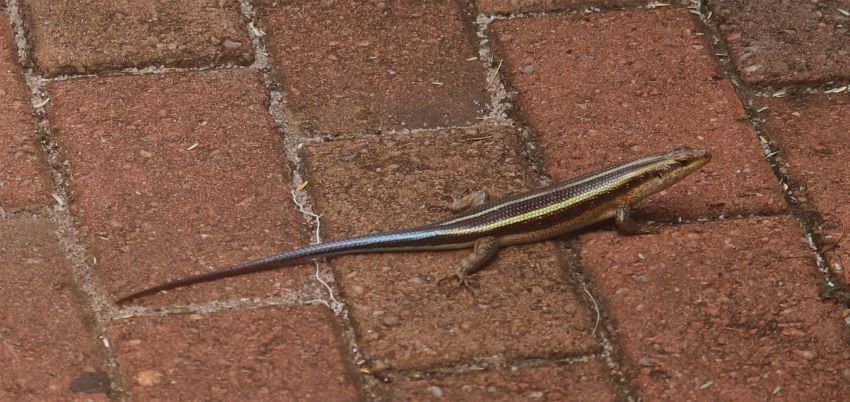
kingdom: Animalia
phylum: Chordata
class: Squamata
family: Scincidae
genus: Trachylepis
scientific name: Trachylepis margaritifera
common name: Rainbow skink
